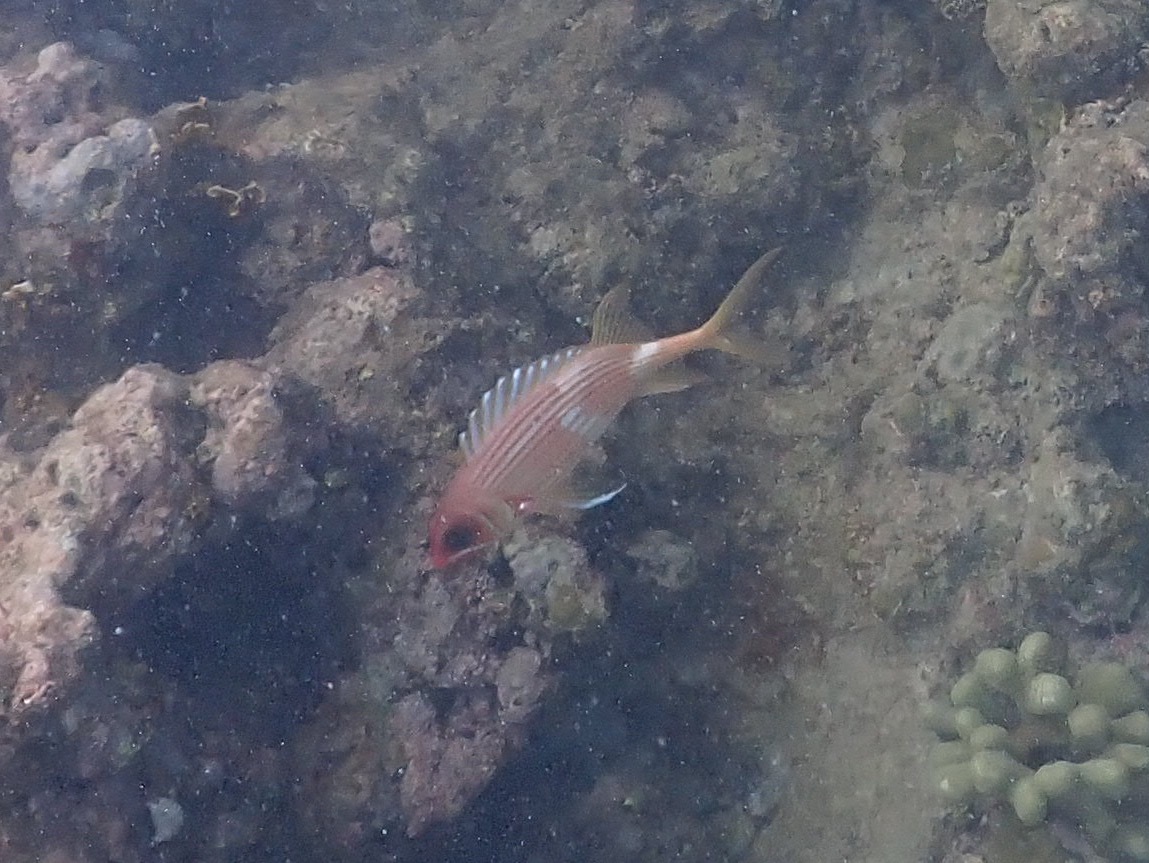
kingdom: Animalia
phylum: Chordata
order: Beryciformes
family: Holocentridae
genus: Holocentrus
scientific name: Holocentrus rufus
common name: Longspine squirrelfish
